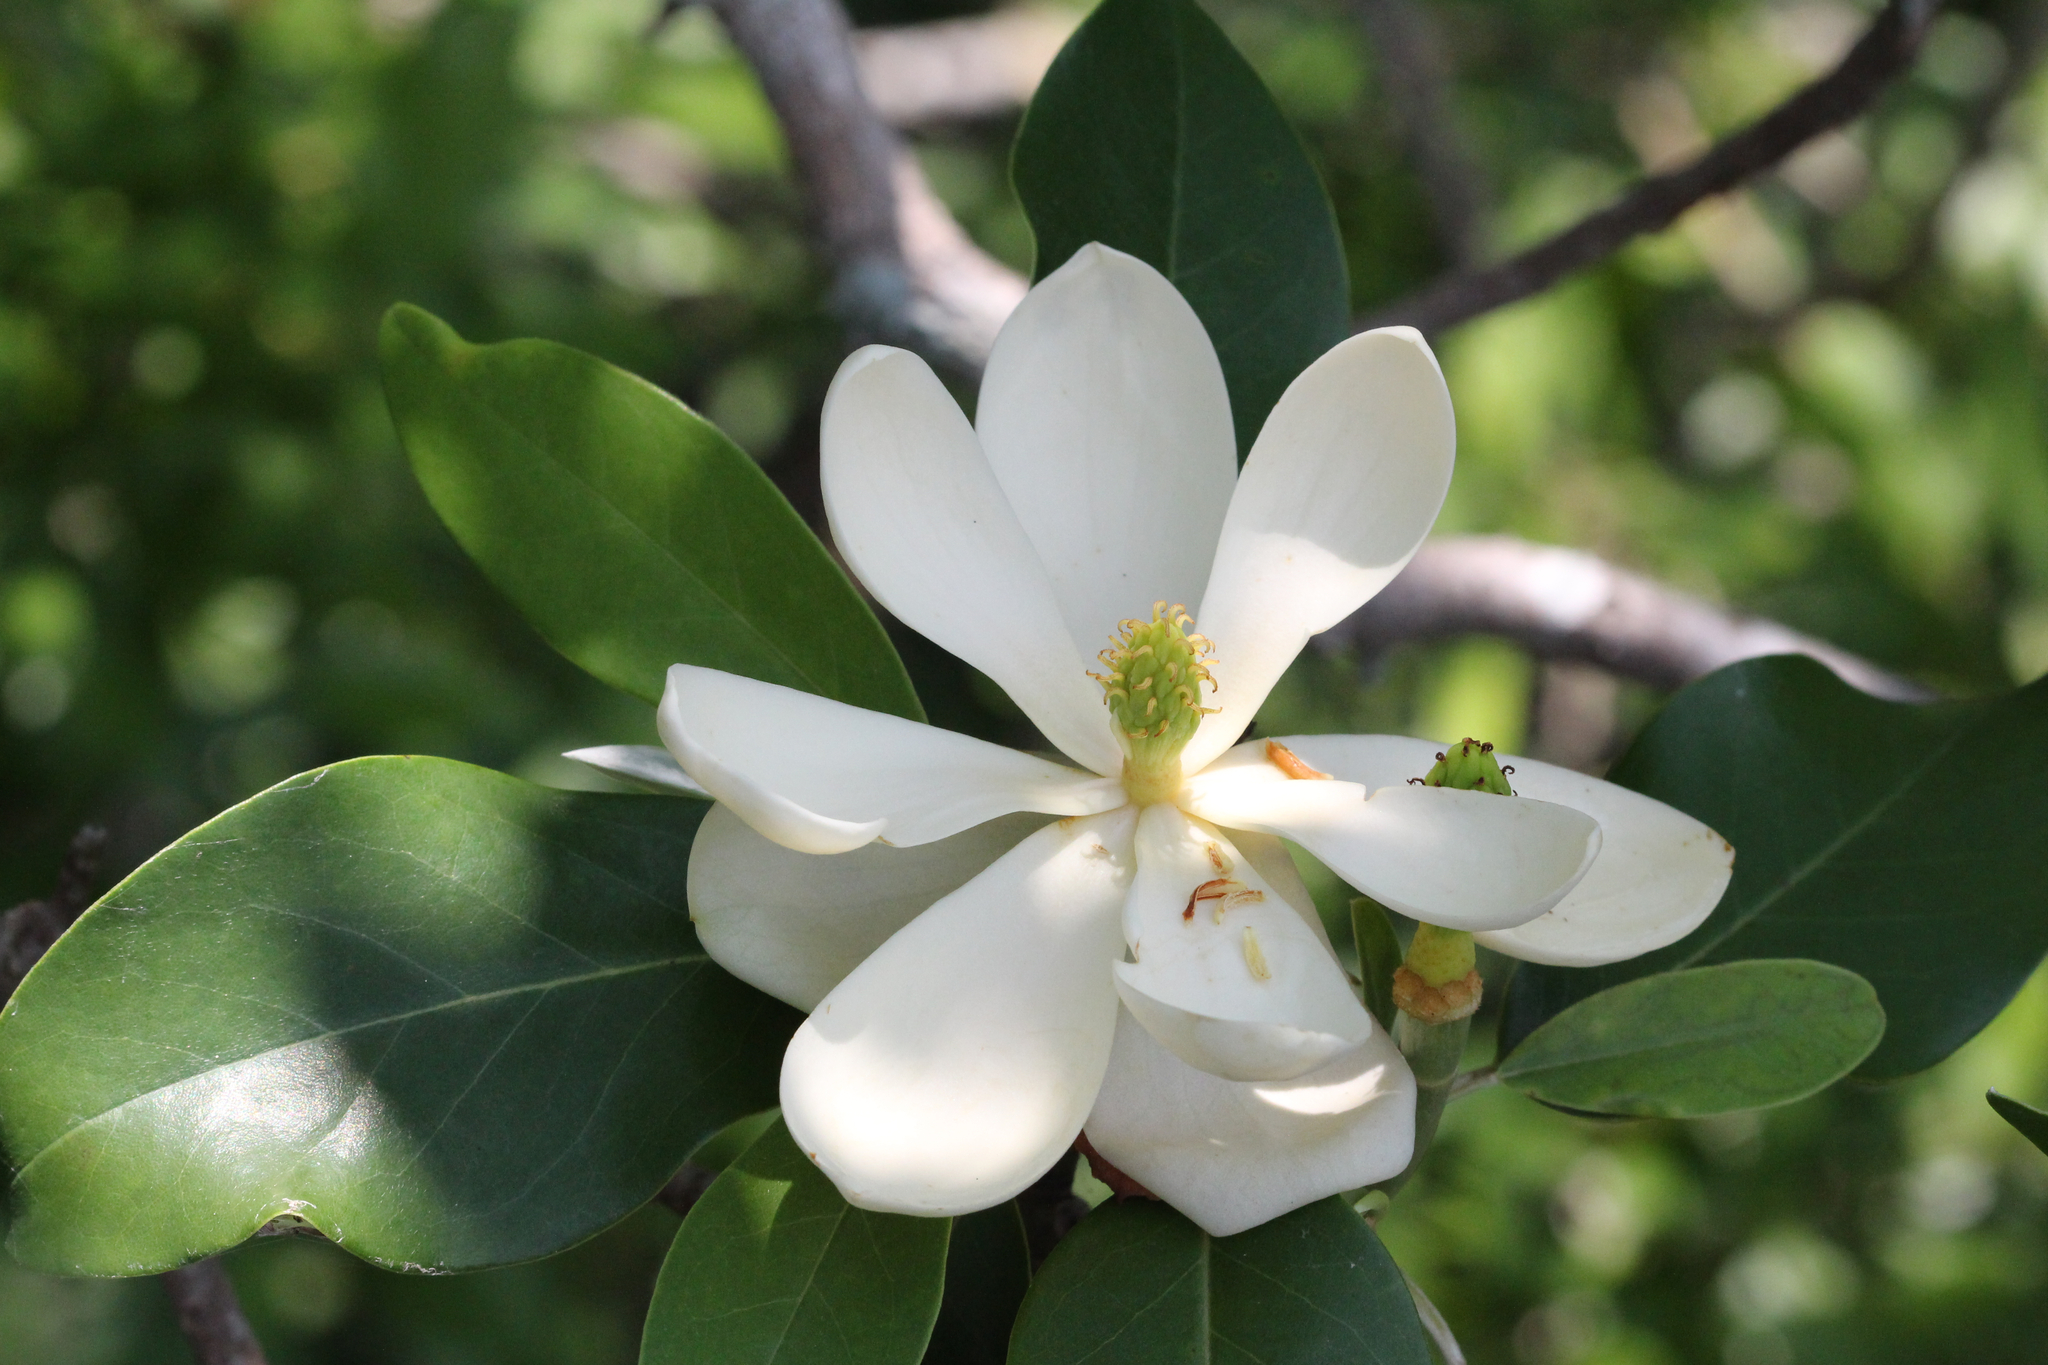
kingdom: Plantae
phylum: Tracheophyta
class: Magnoliopsida
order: Magnoliales
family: Magnoliaceae
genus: Magnolia
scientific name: Magnolia virginiana
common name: Swamp bay
